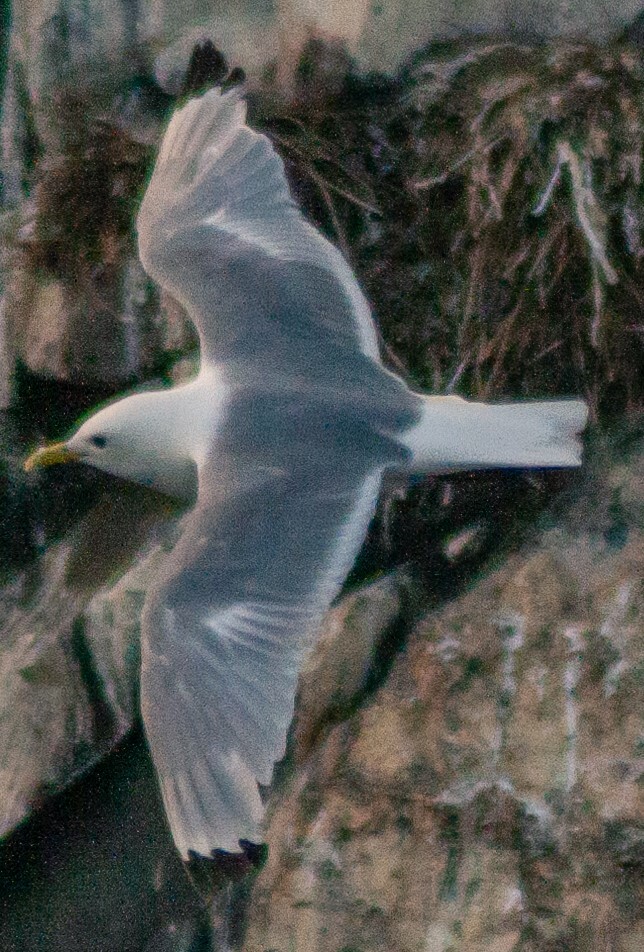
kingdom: Animalia
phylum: Chordata
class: Aves
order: Charadriiformes
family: Laridae
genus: Rissa
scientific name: Rissa tridactyla
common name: Black-legged kittiwake
